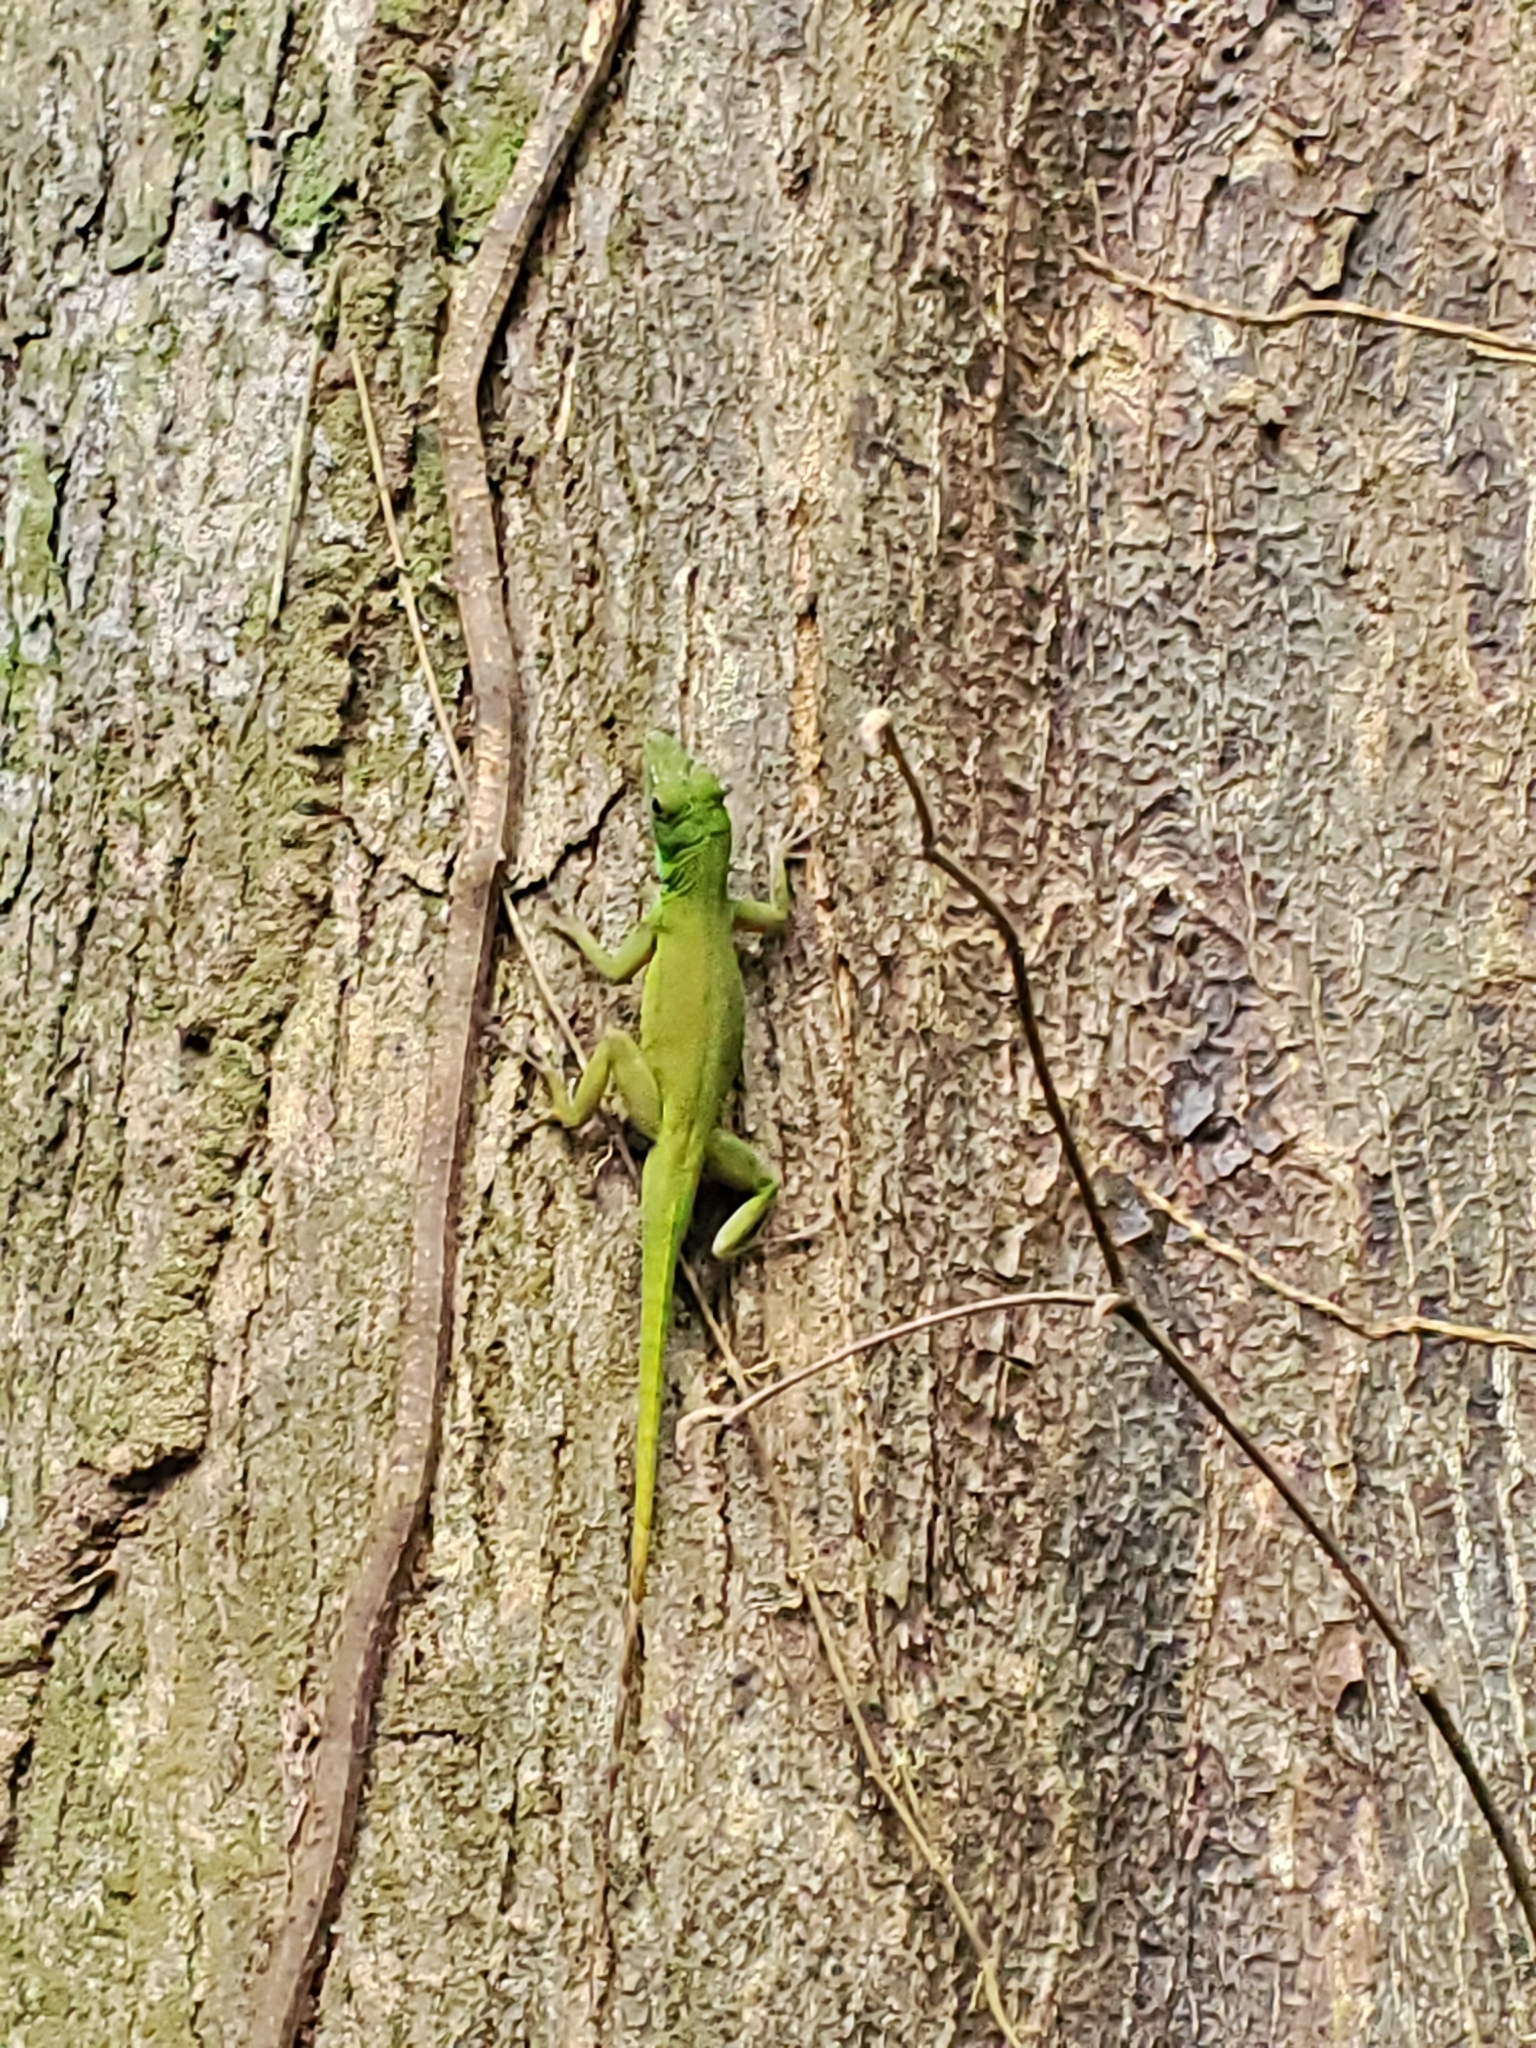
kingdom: Animalia
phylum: Chordata
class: Squamata
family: Dactyloidae
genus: Anolis
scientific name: Anolis evermanni
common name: Emerald anole
